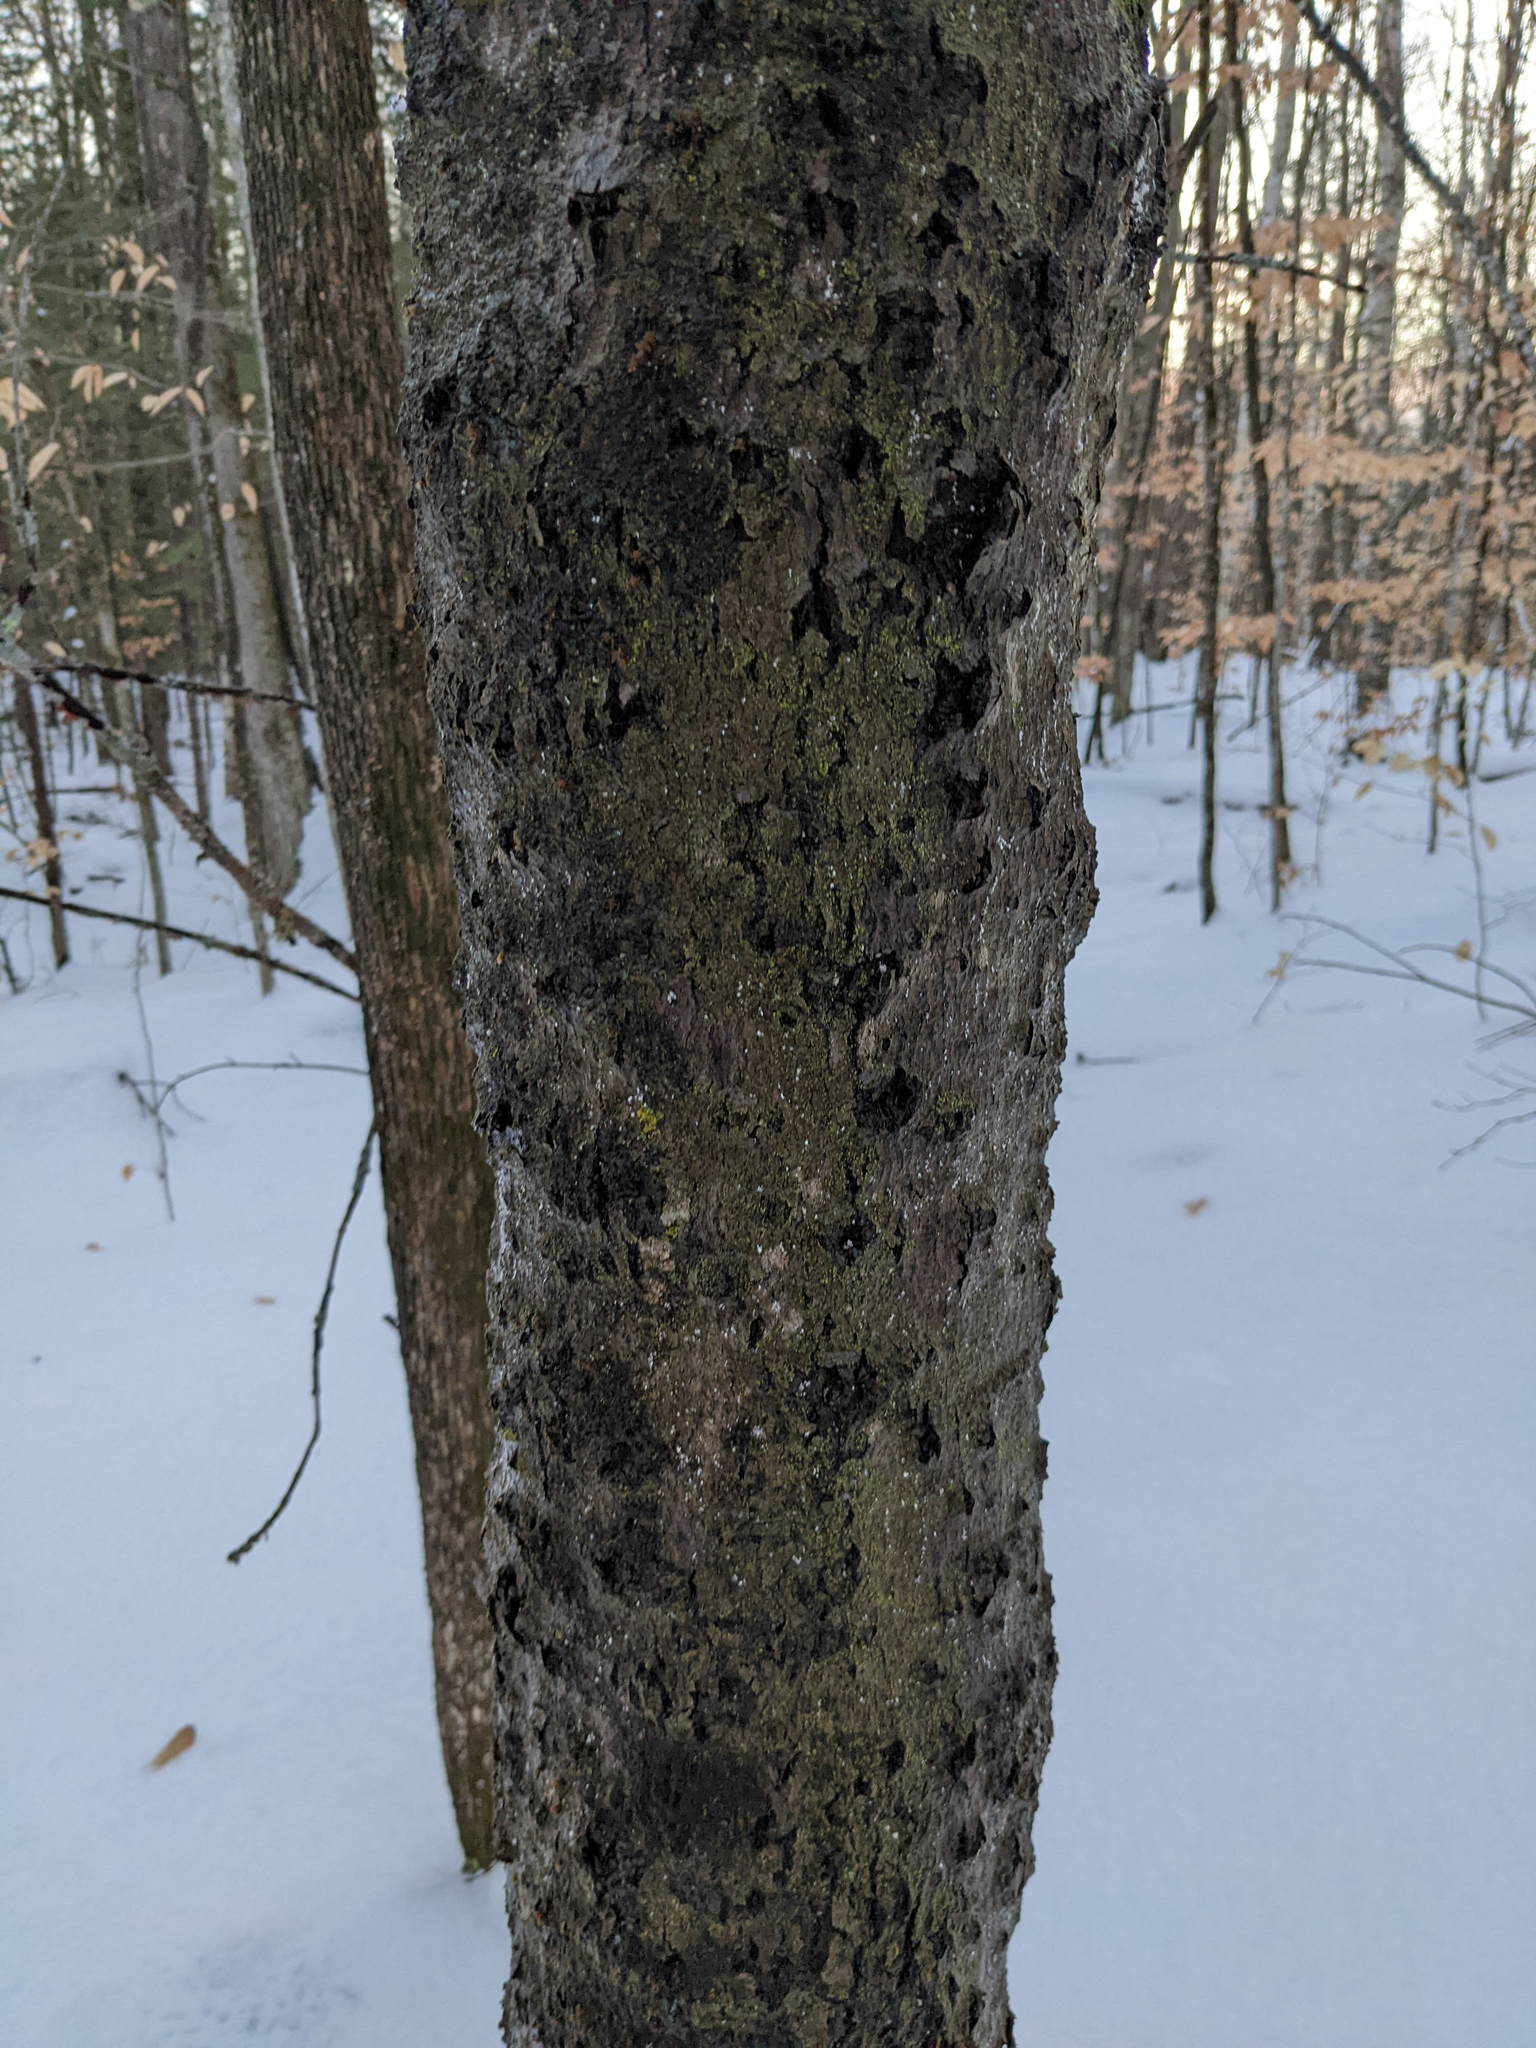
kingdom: Plantae
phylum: Tracheophyta
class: Magnoliopsida
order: Fagales
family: Fagaceae
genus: Fagus
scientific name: Fagus grandifolia
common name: American beech
